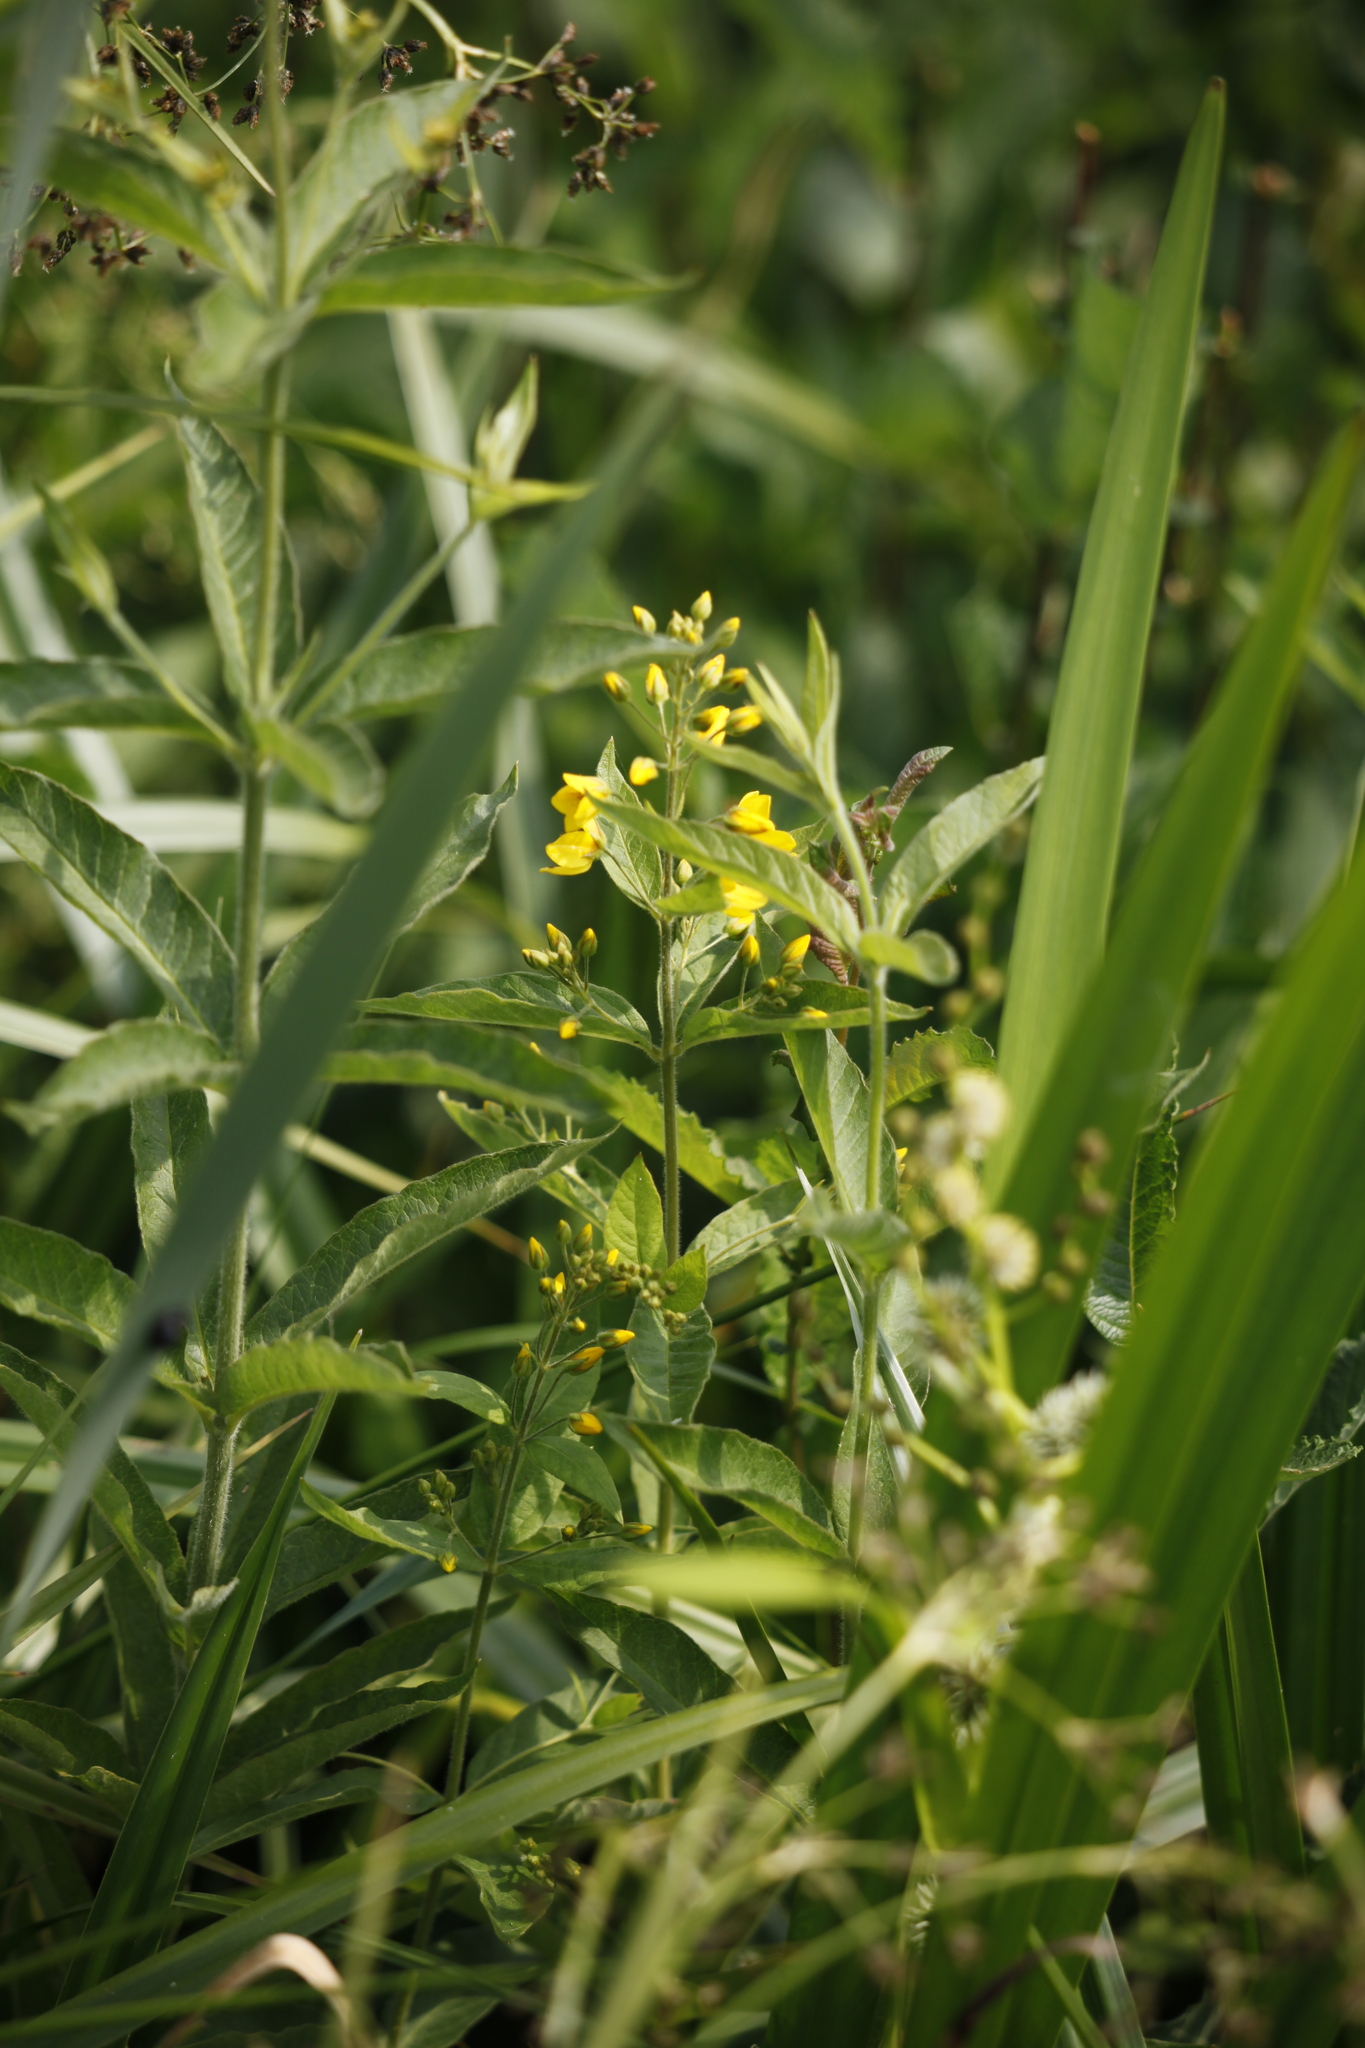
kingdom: Plantae
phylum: Tracheophyta
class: Magnoliopsida
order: Ericales
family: Primulaceae
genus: Lysimachia
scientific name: Lysimachia vulgaris
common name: Yellow loosestrife
